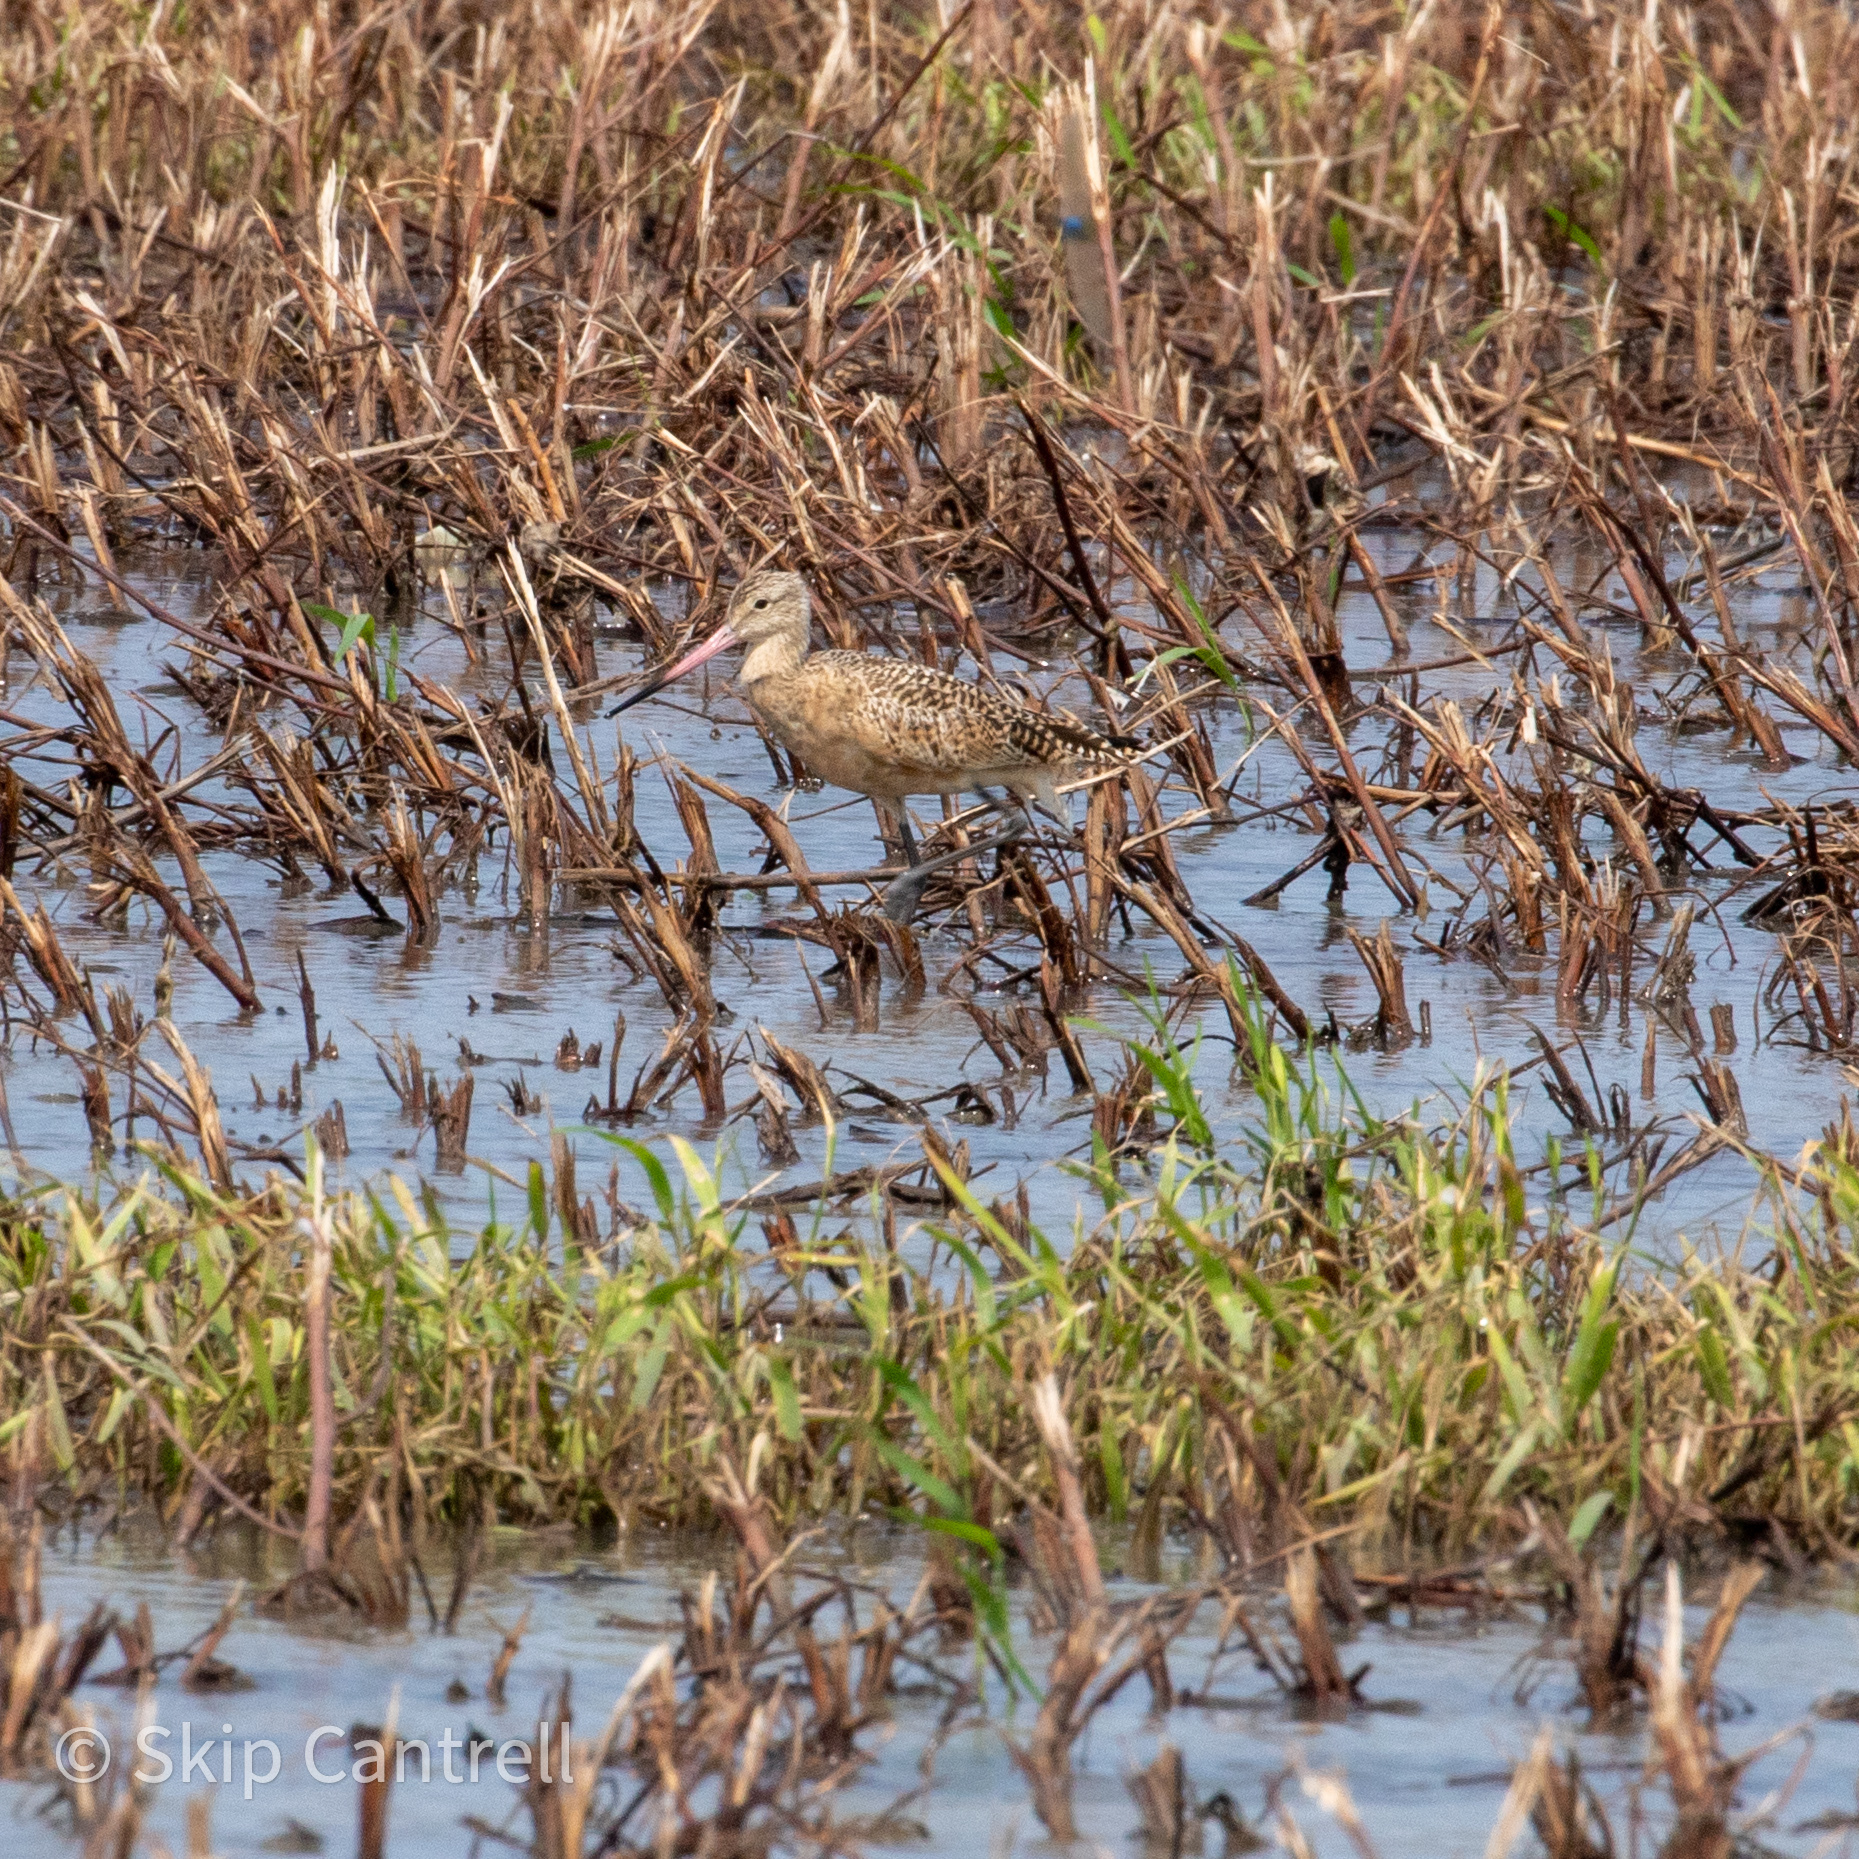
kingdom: Animalia
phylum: Chordata
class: Aves
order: Charadriiformes
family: Scolopacidae
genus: Limosa
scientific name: Limosa fedoa
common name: Marbled godwit
